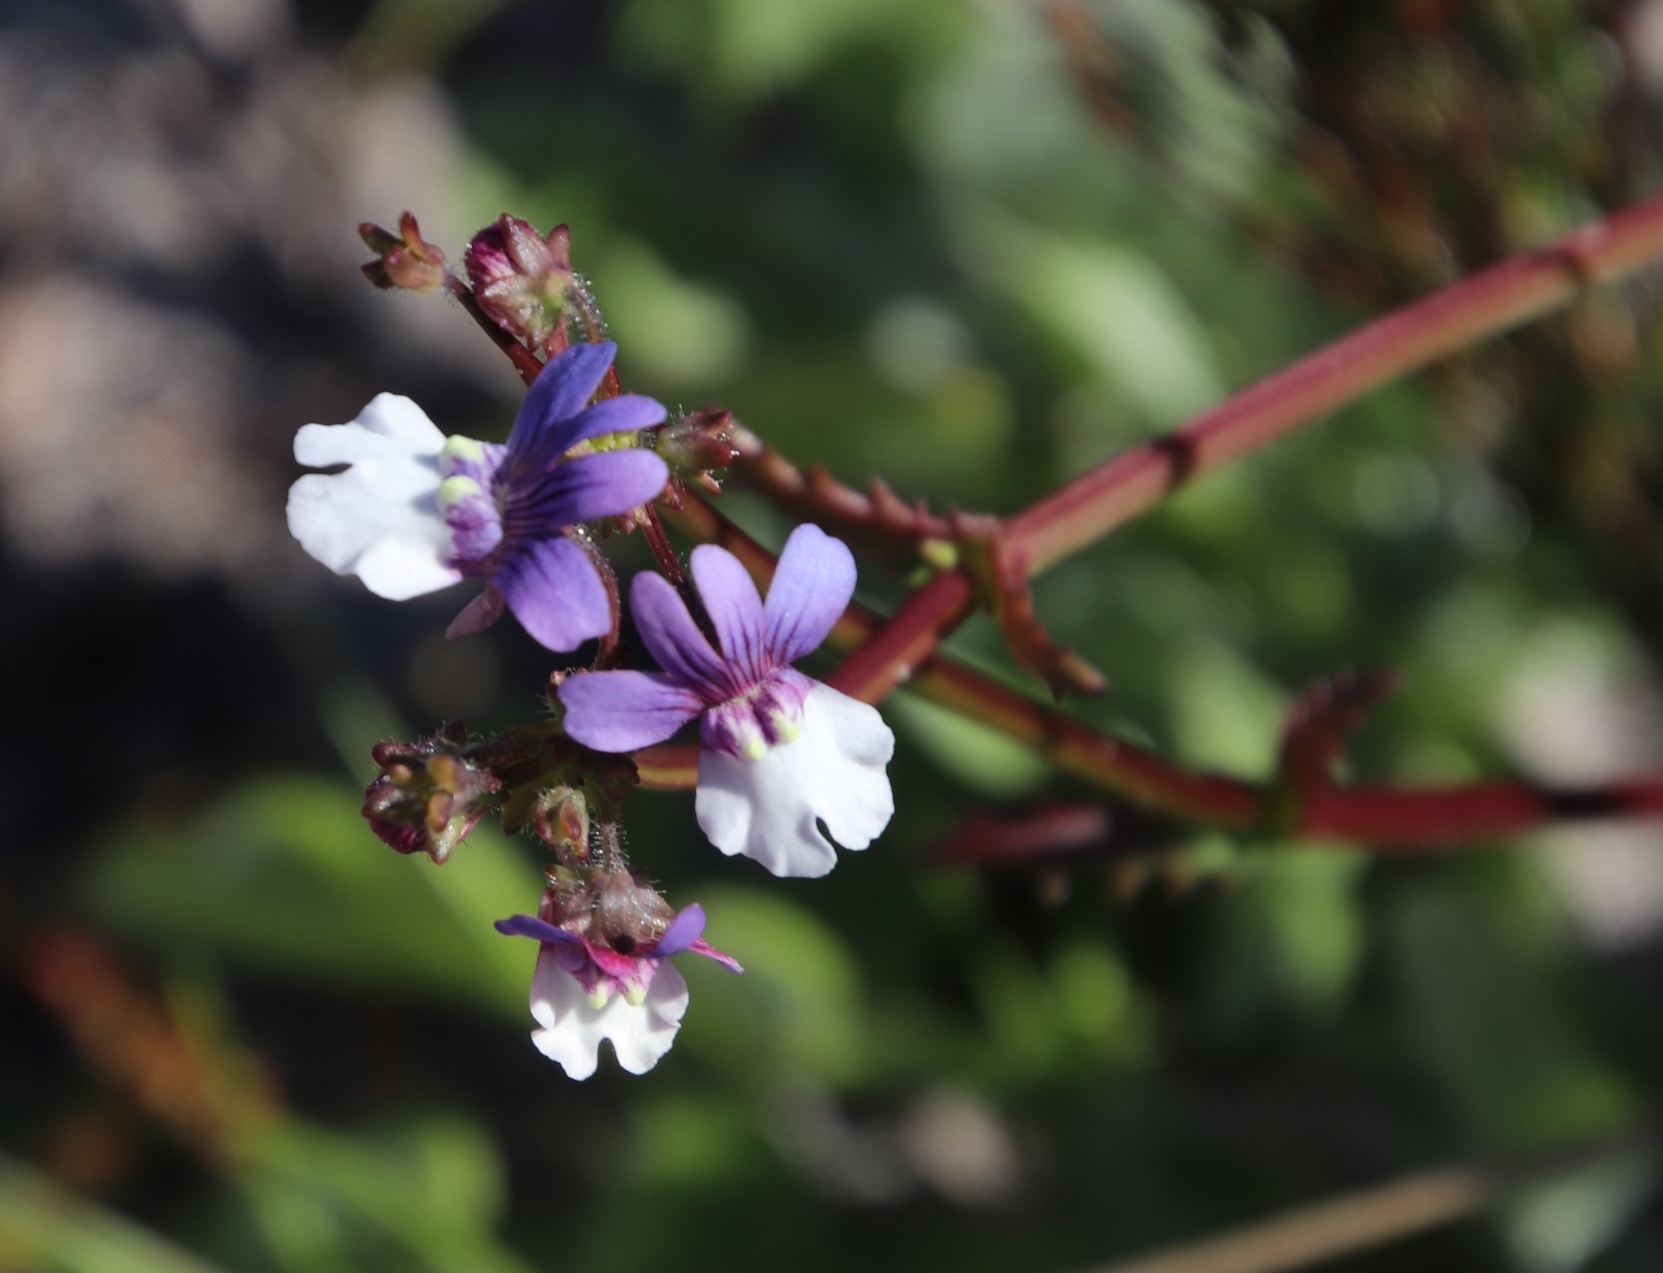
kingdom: Plantae
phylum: Tracheophyta
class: Magnoliopsida
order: Lamiales
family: Scrophulariaceae
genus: Nemesia
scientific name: Nemesia affinis
